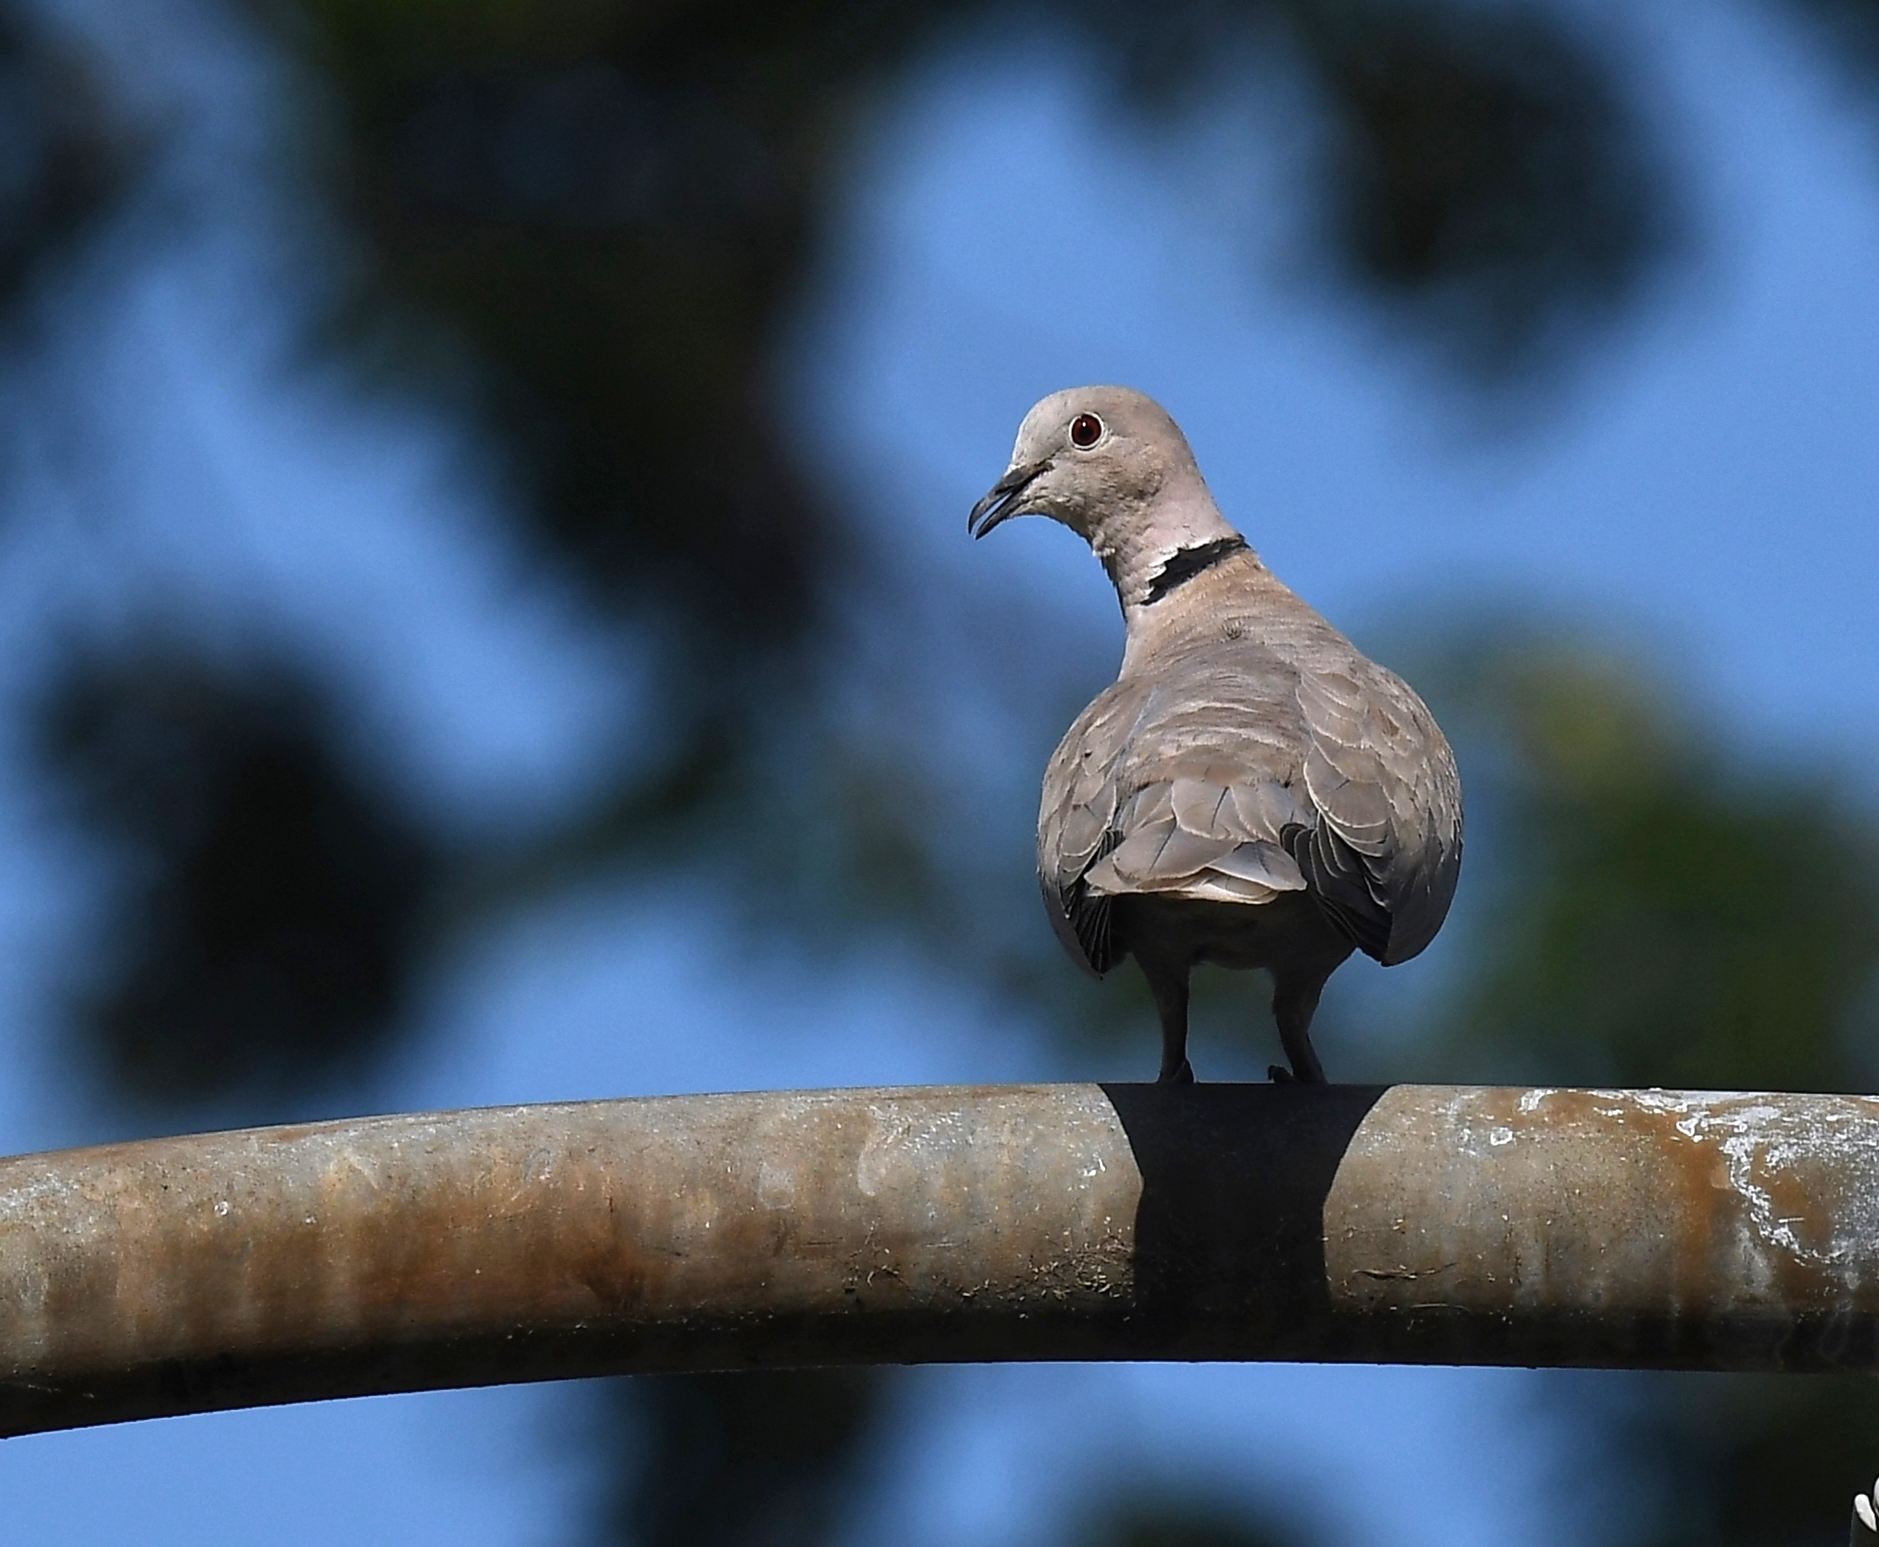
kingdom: Animalia
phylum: Chordata
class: Aves
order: Columbiformes
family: Columbidae
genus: Streptopelia
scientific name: Streptopelia decaocto
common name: Eurasian collared dove
